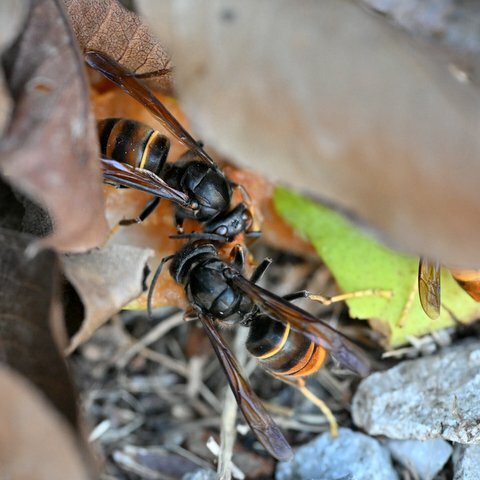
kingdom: Animalia
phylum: Arthropoda
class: Insecta
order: Hymenoptera
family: Vespidae
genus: Vespa
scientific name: Vespa velutina
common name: Asian hornet
